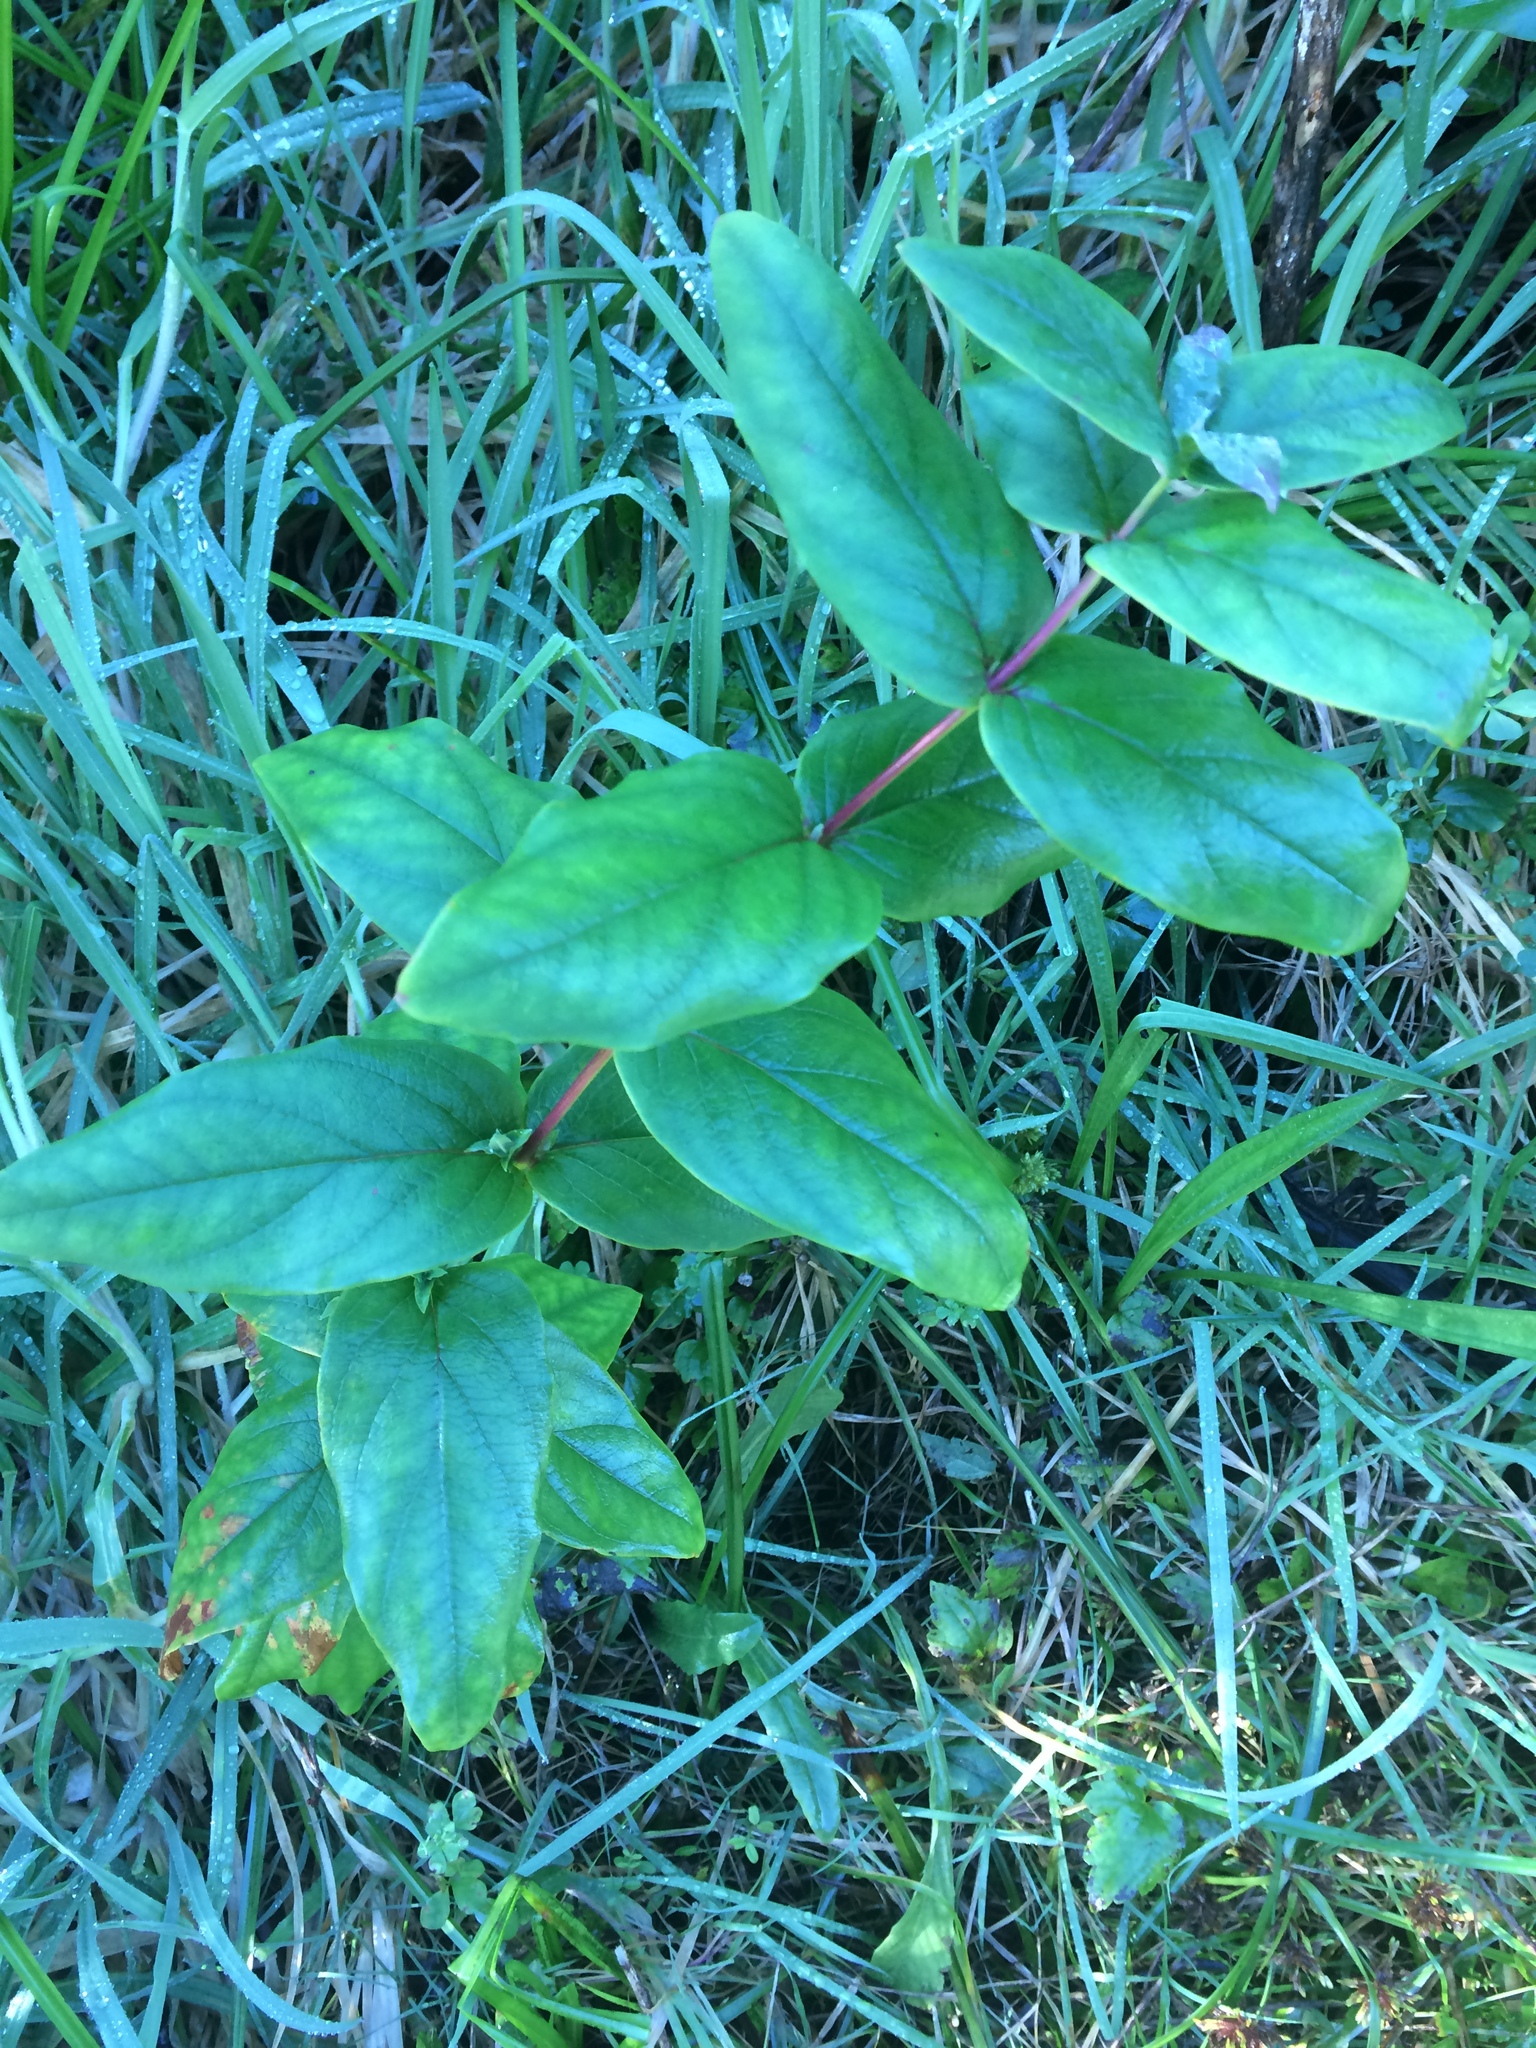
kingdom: Plantae
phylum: Tracheophyta
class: Magnoliopsida
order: Malpighiales
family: Hypericaceae
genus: Hypericum
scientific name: Hypericum androsaemum
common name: Sweet-amber
